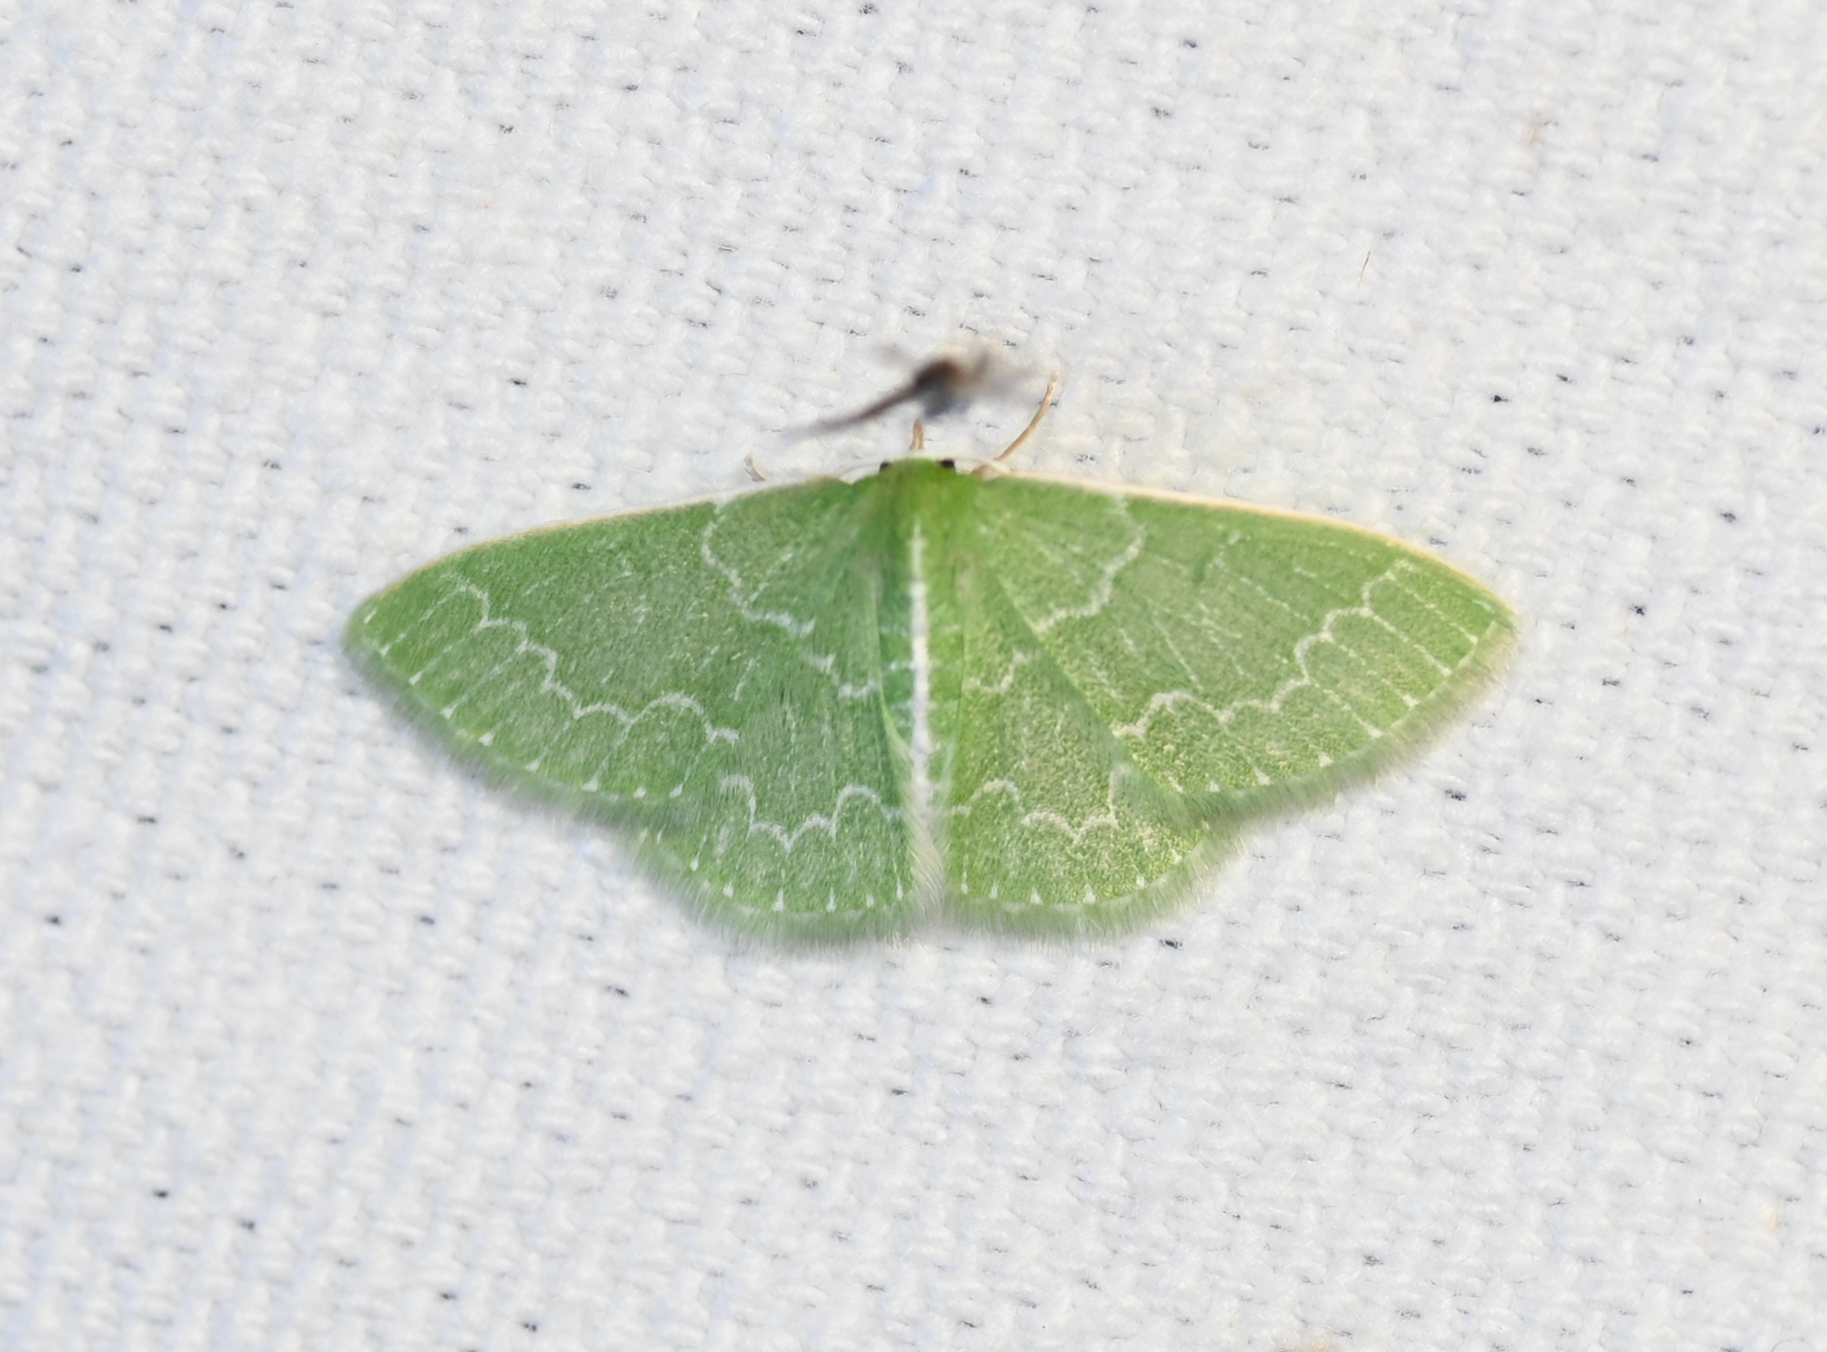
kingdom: Animalia
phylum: Arthropoda
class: Insecta
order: Lepidoptera
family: Geometridae
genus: Synchlora
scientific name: Synchlora frondaria
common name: Southern emerald
